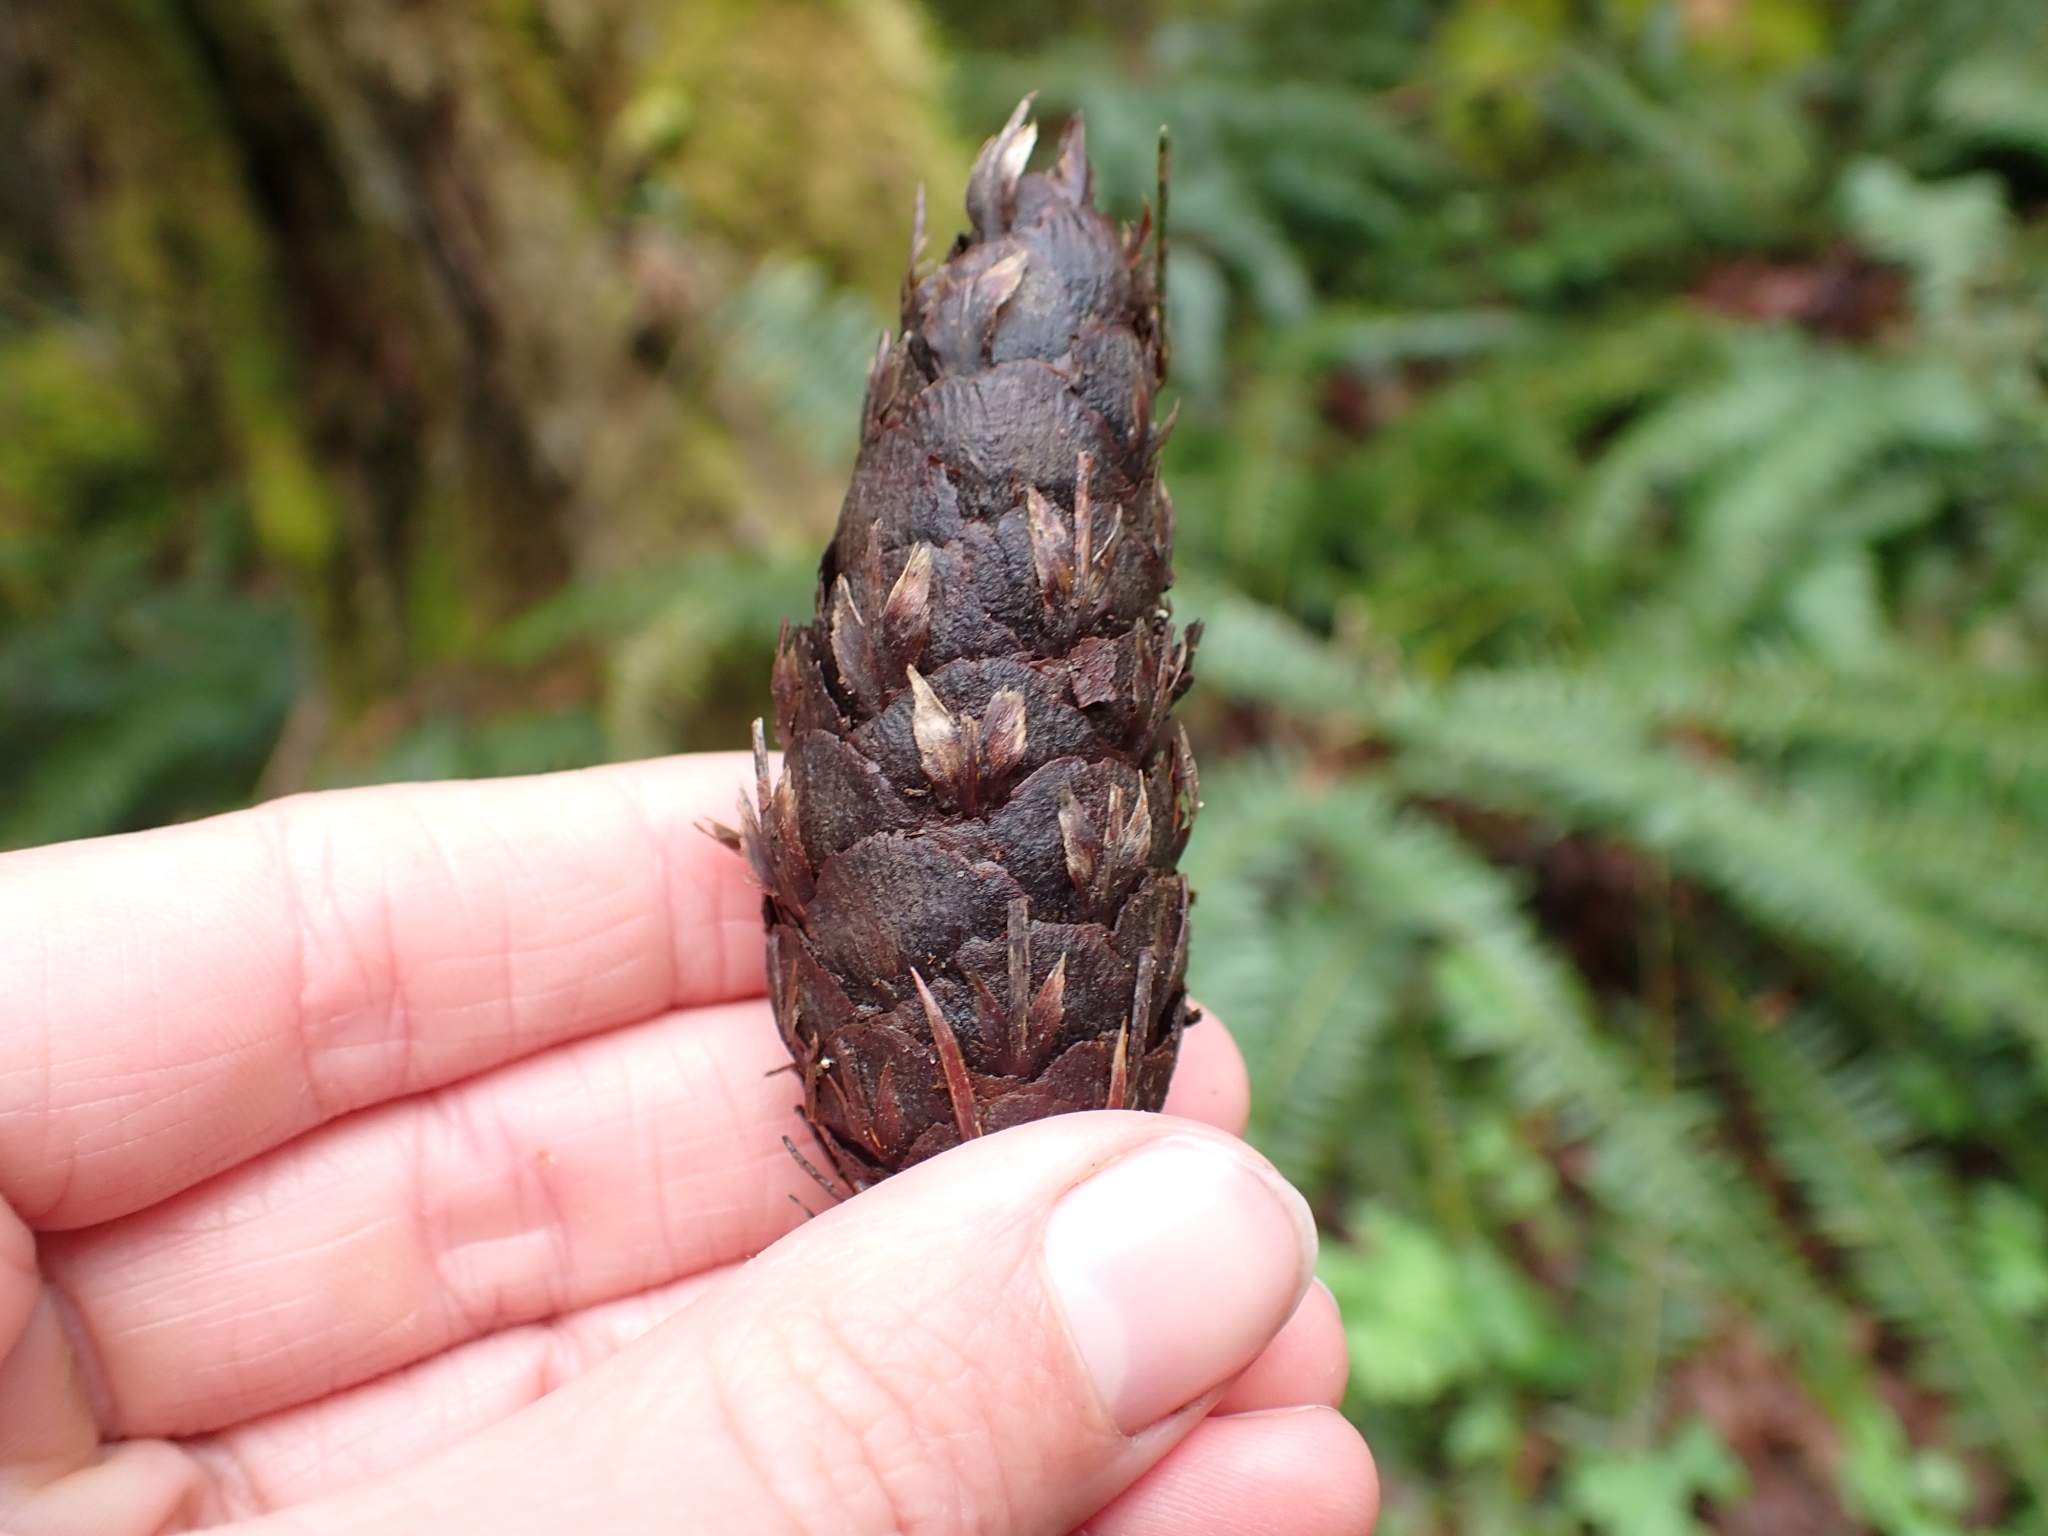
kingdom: Plantae
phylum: Tracheophyta
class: Pinopsida
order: Pinales
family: Pinaceae
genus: Pseudotsuga
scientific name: Pseudotsuga menziesii
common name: Douglas fir
